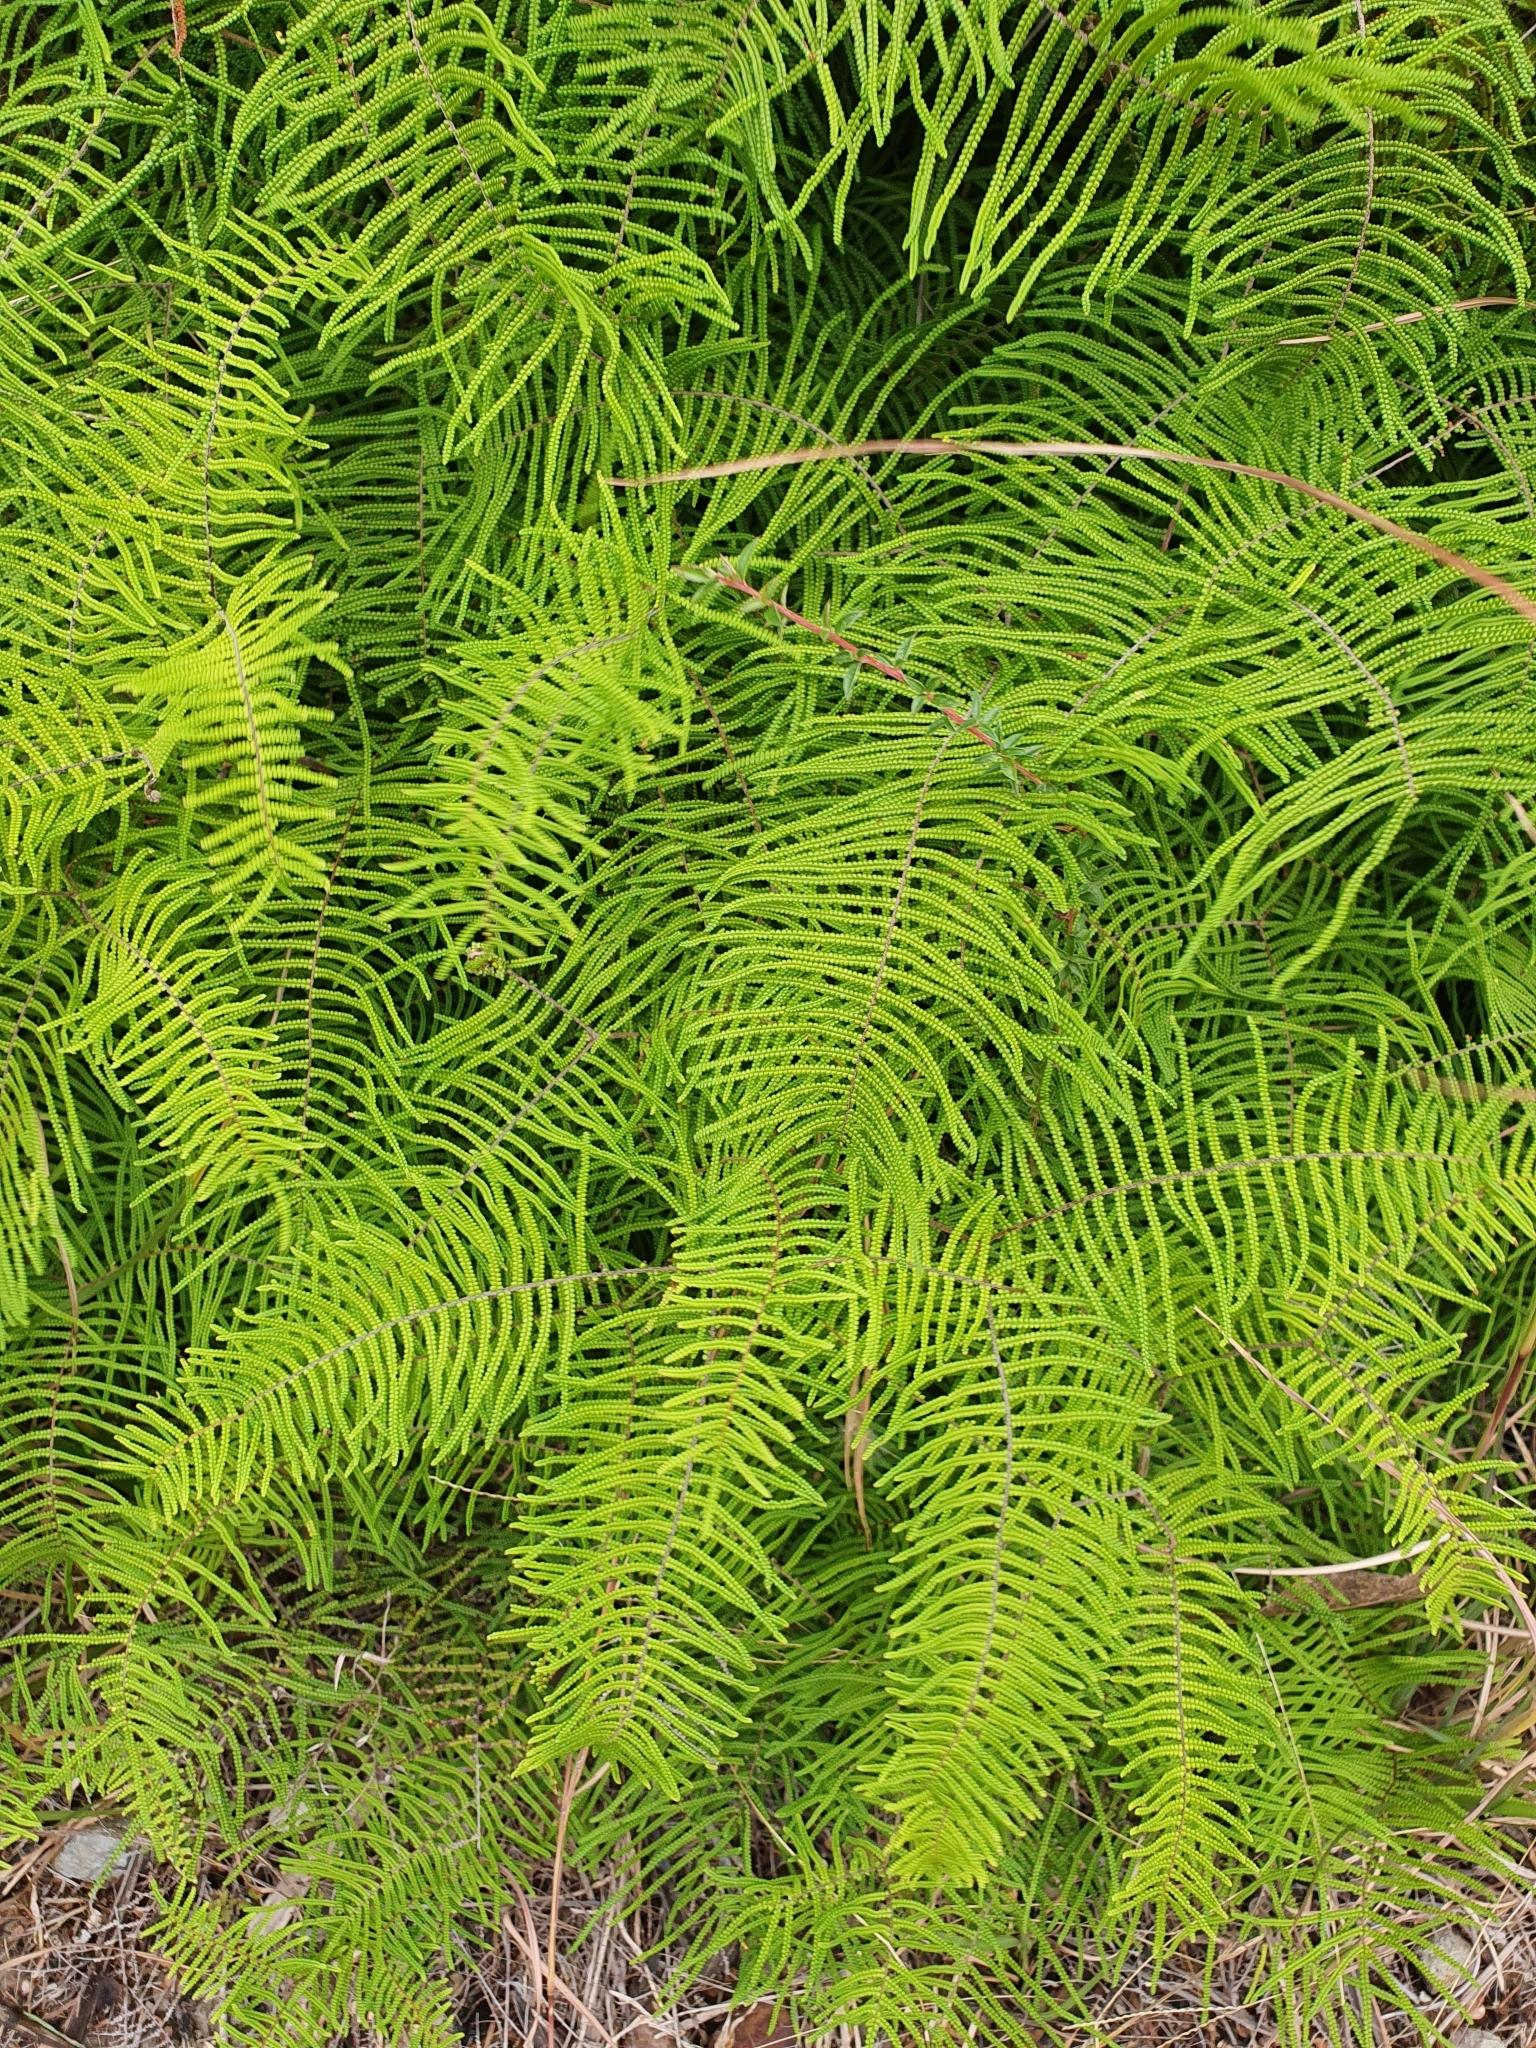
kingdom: Plantae
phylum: Tracheophyta
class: Polypodiopsida
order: Gleicheniales
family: Gleicheniaceae
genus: Gleichenia
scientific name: Gleichenia dicarpa
